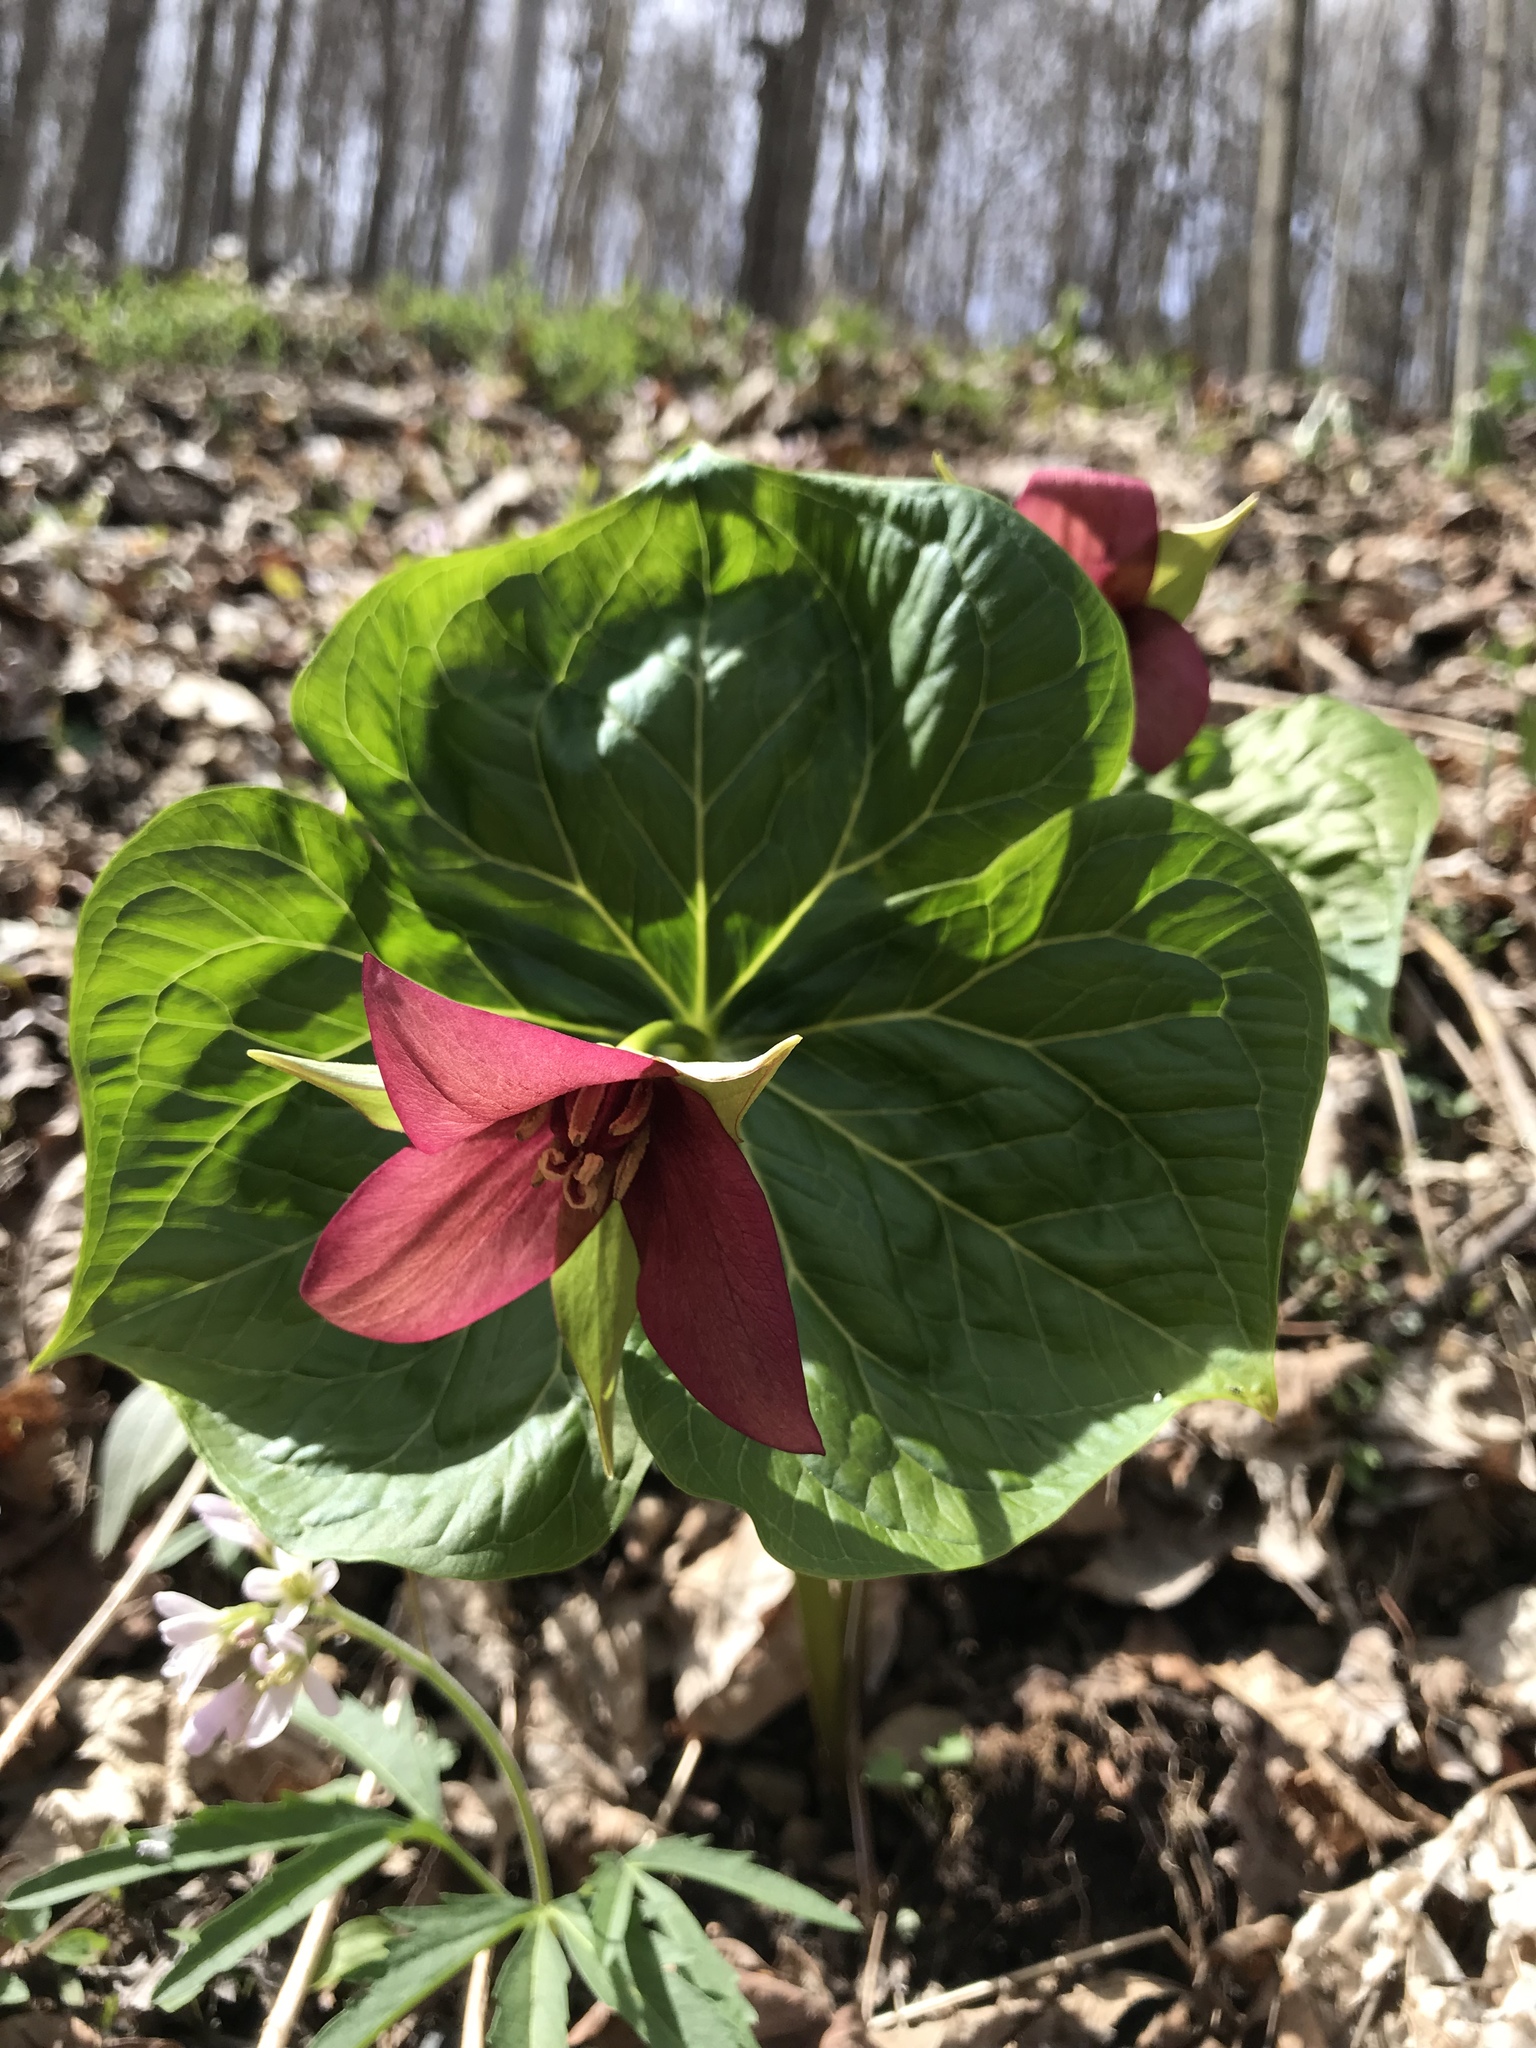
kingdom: Plantae
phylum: Tracheophyta
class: Liliopsida
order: Liliales
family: Melanthiaceae
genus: Trillium
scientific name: Trillium erectum
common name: Purple trillium
